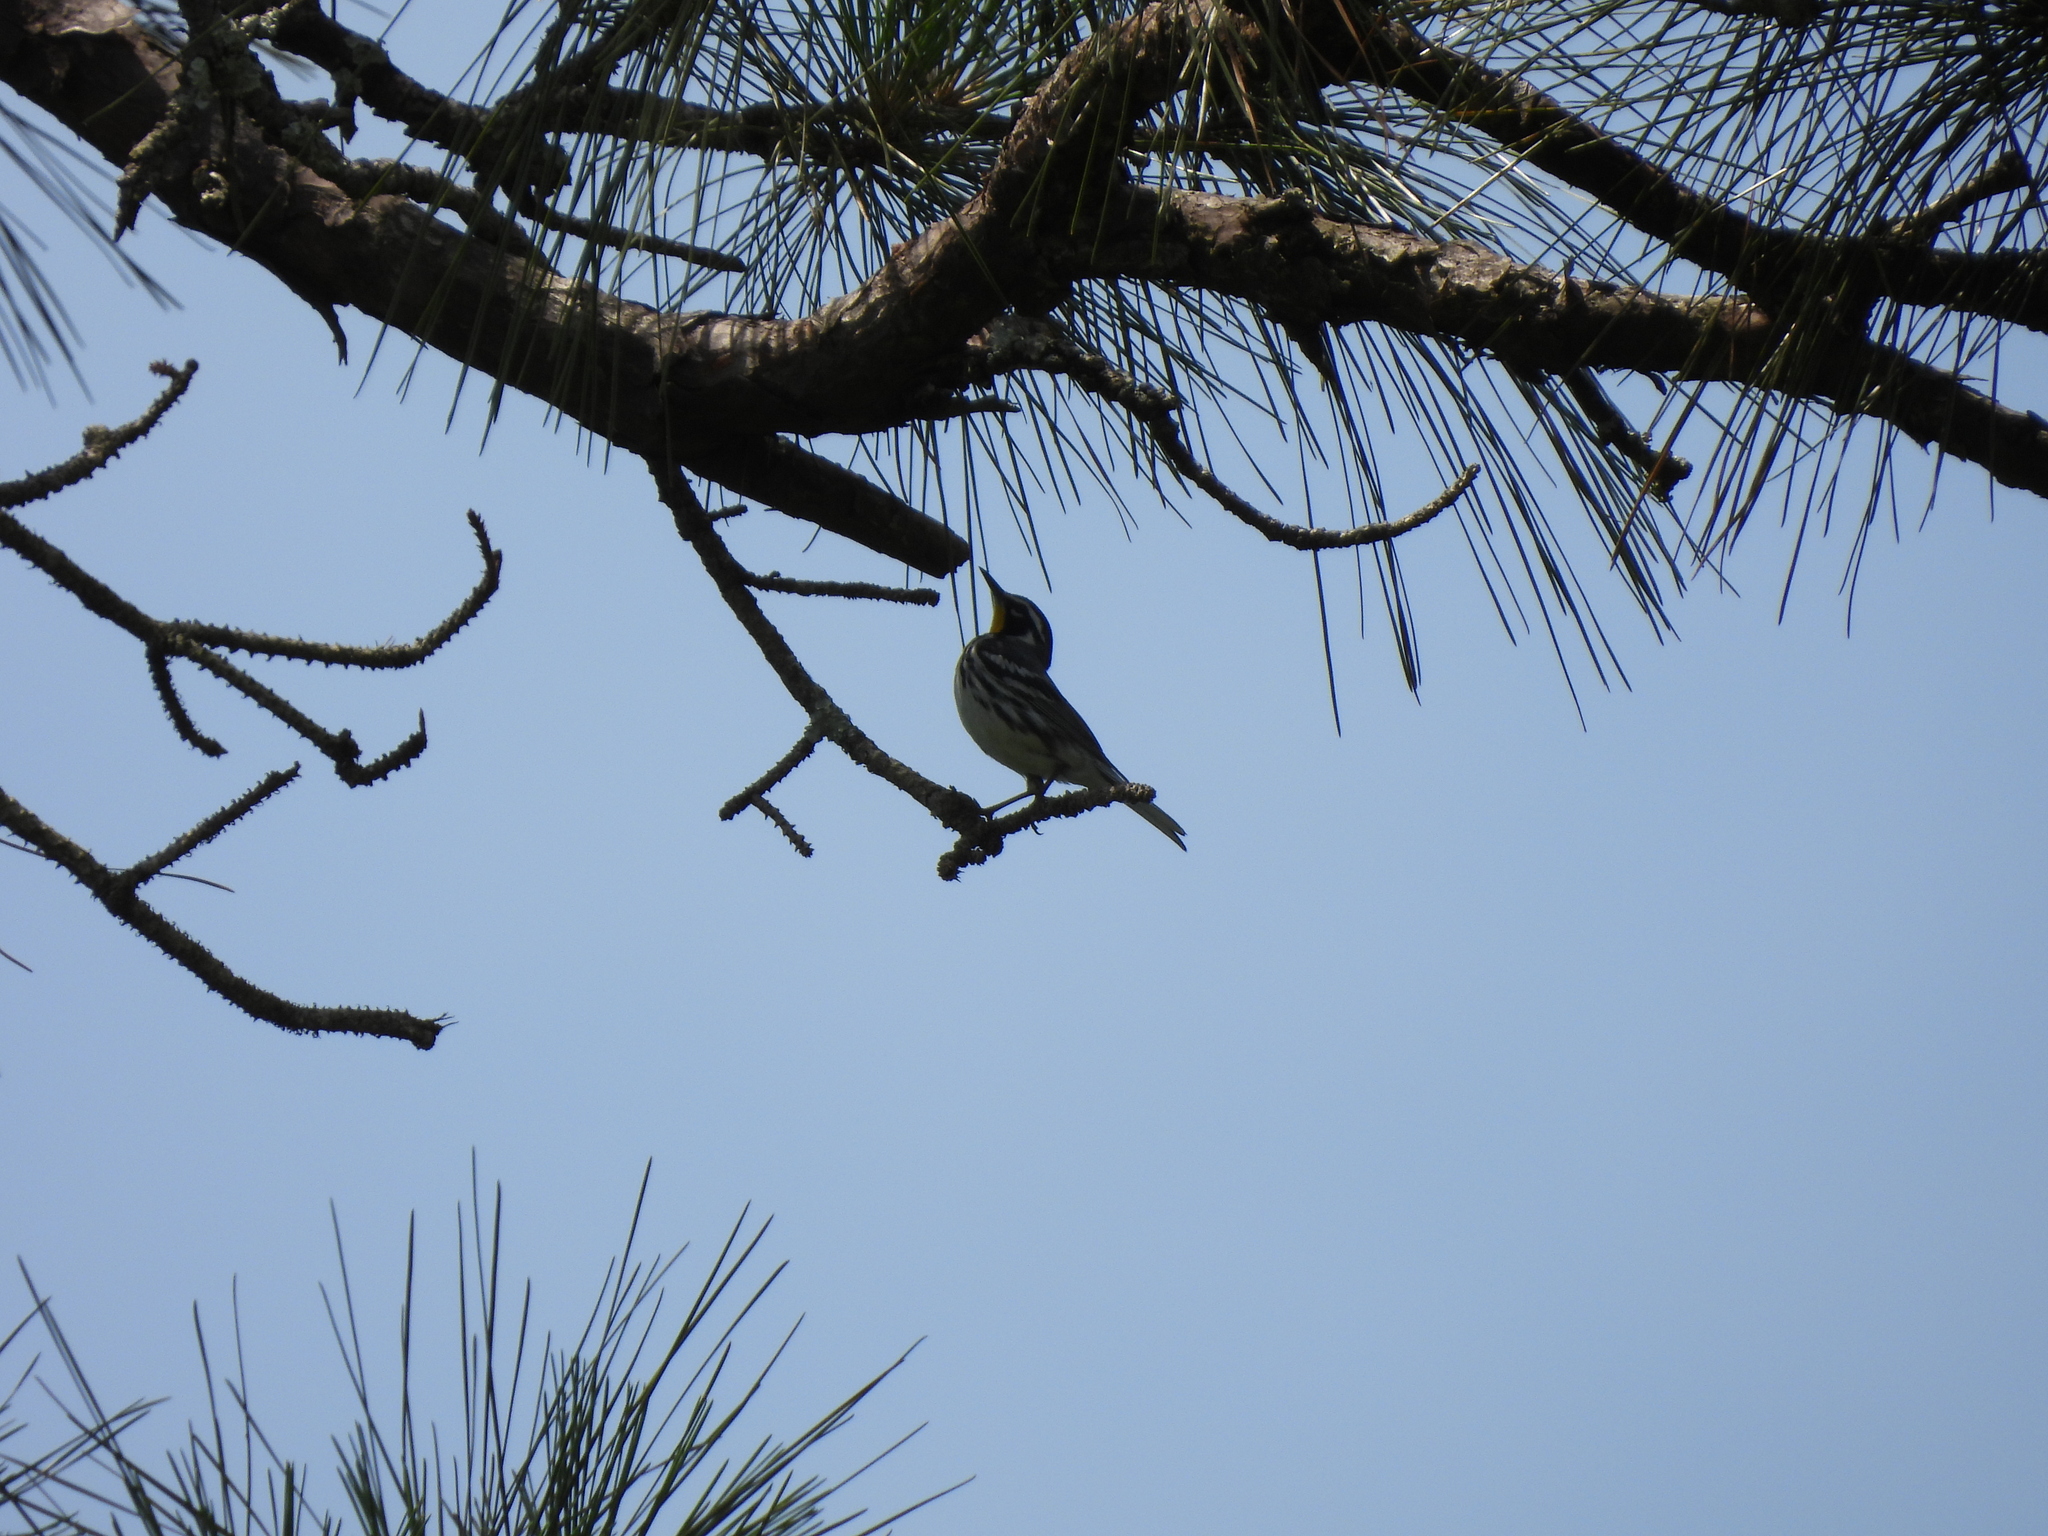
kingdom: Animalia
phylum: Chordata
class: Aves
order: Passeriformes
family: Parulidae
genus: Setophaga
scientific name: Setophaga dominica
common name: Yellow-throated warbler
